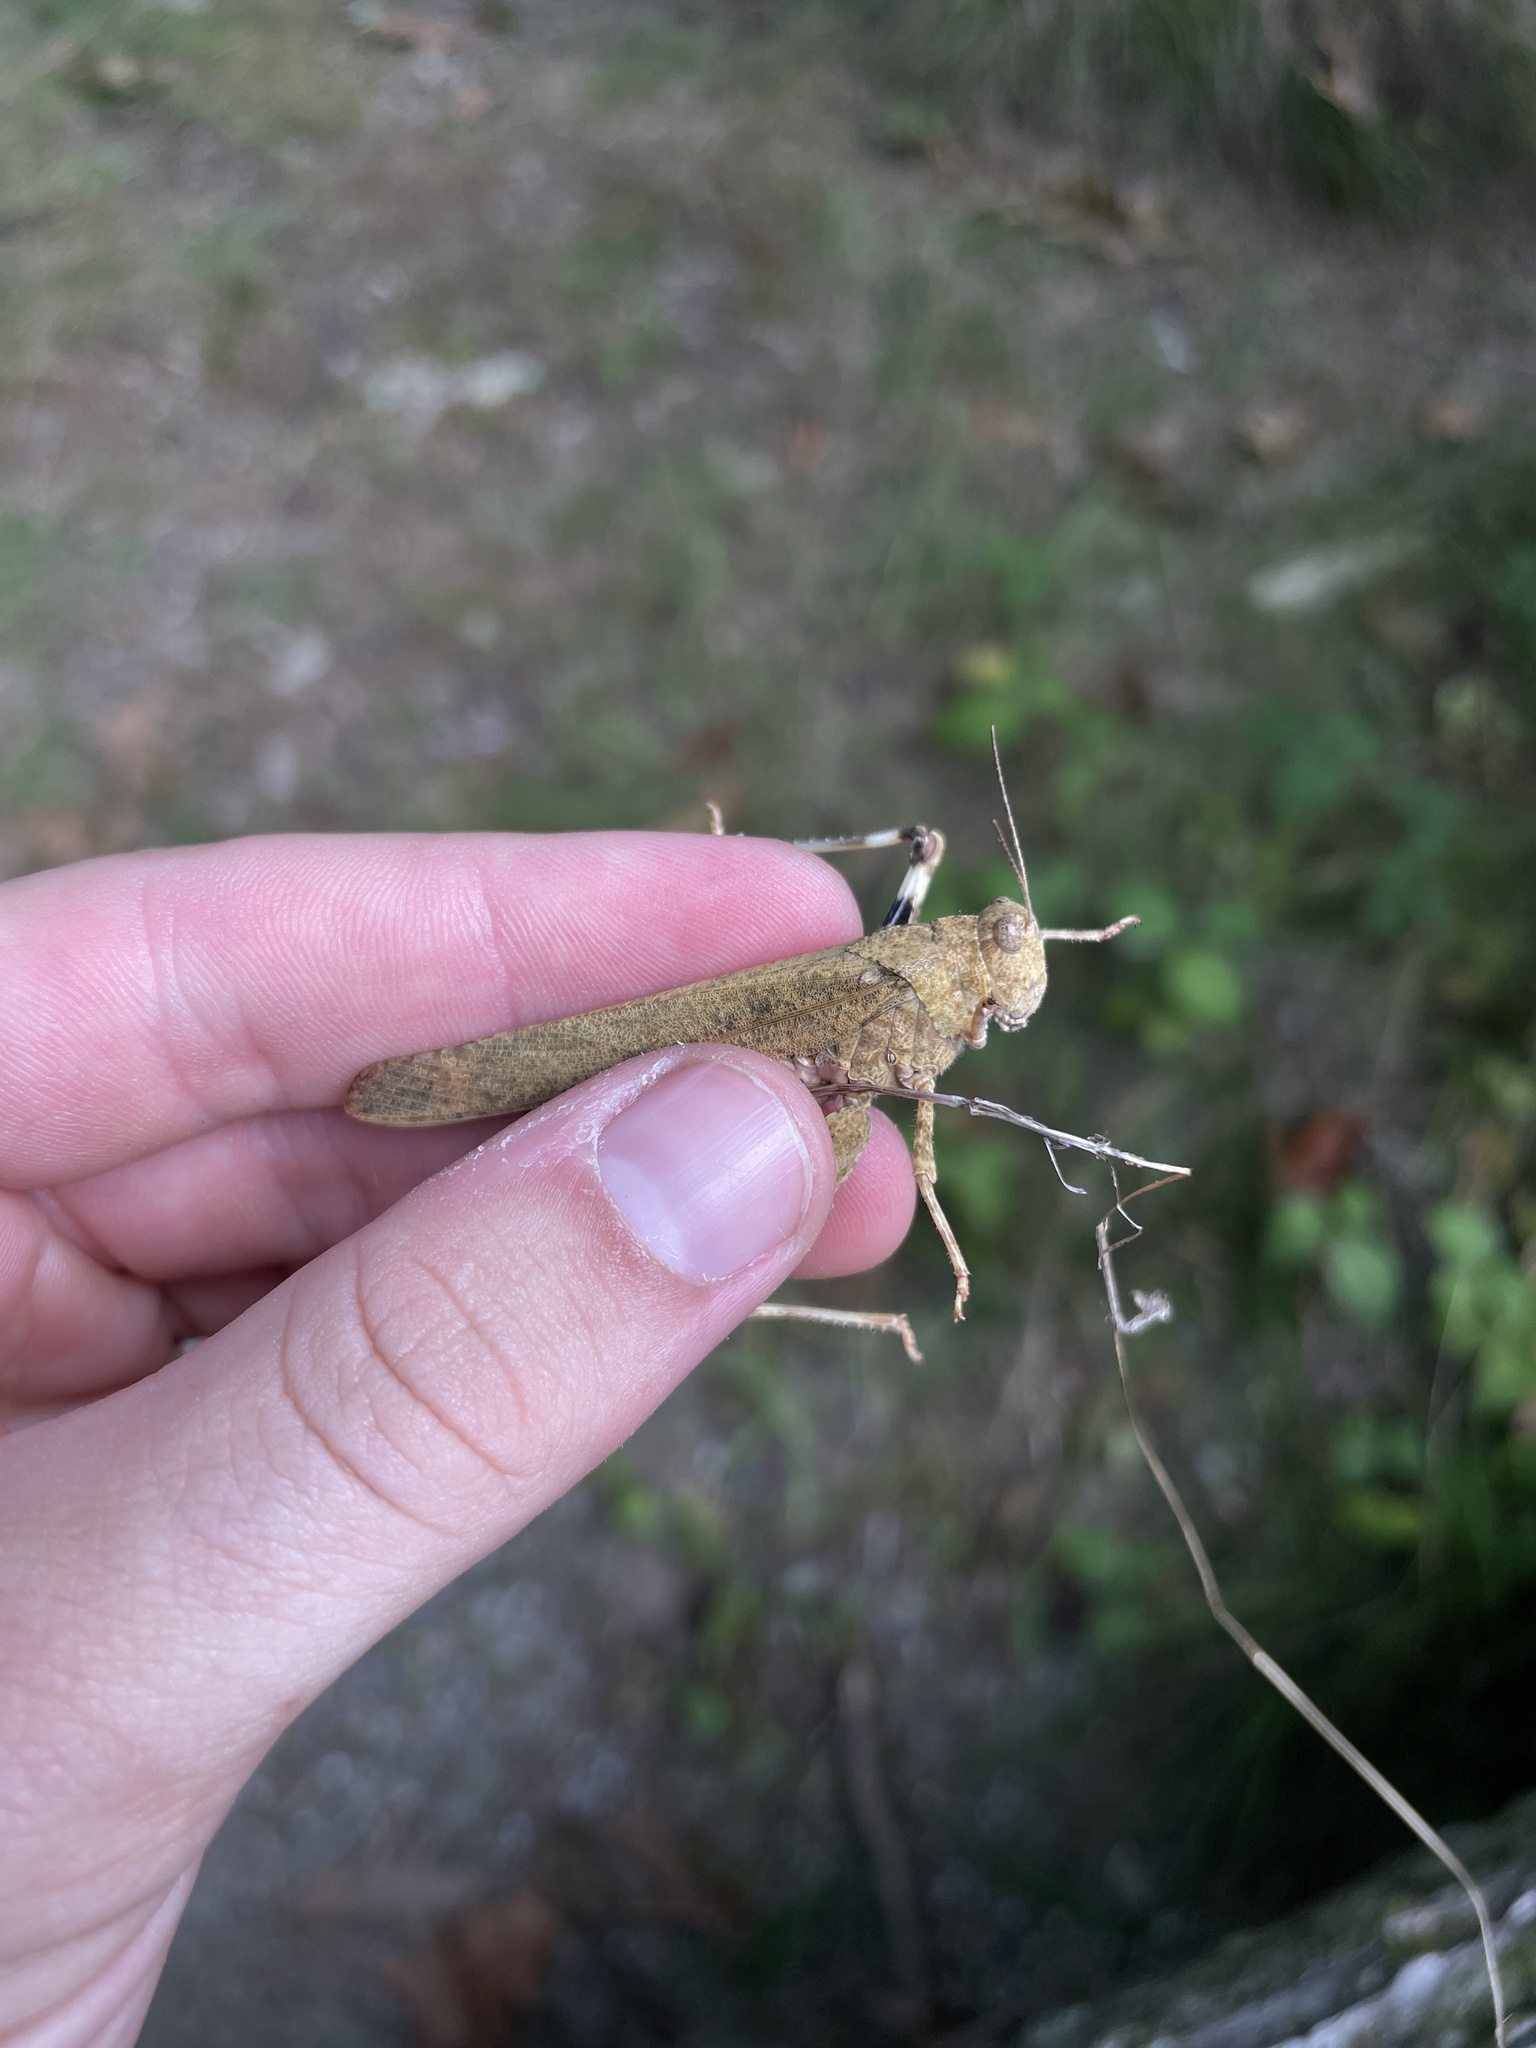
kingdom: Animalia
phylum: Arthropoda
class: Insecta
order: Orthoptera
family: Acrididae
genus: Dissosteira
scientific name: Dissosteira carolina
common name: Carolina grasshopper
